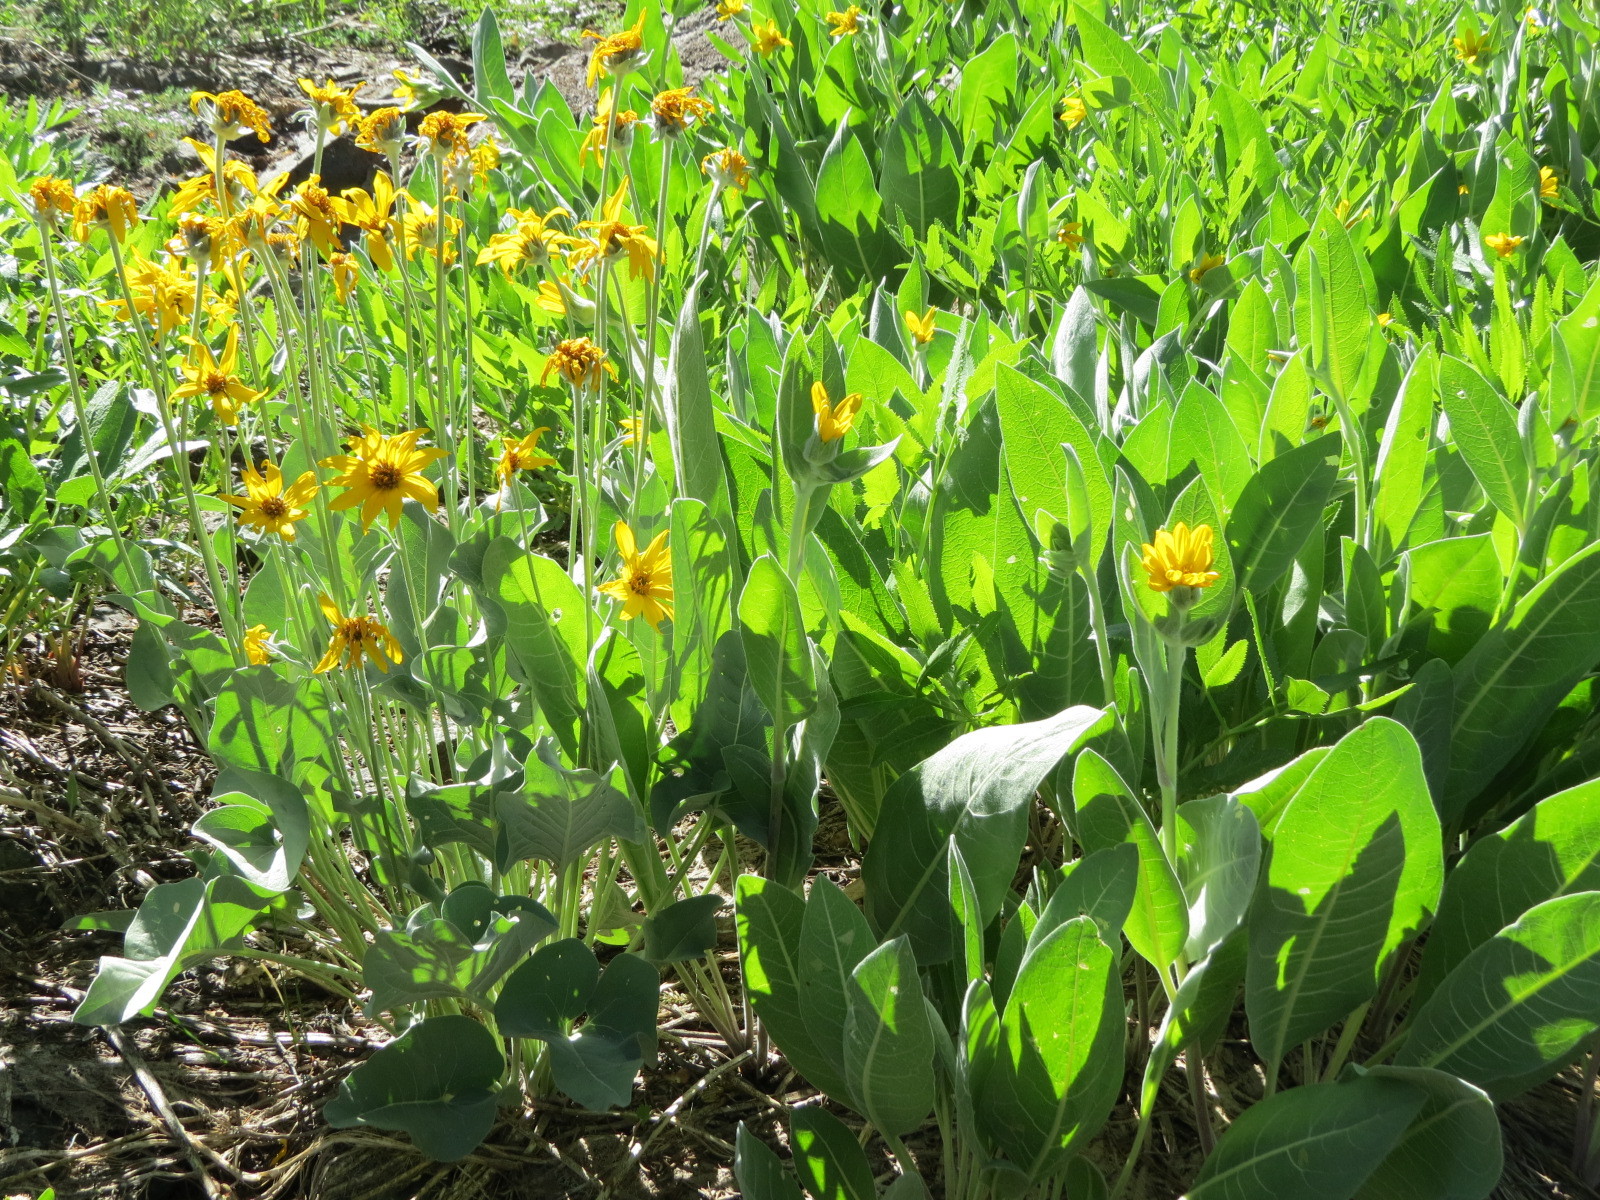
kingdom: Plantae
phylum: Tracheophyta
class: Magnoliopsida
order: Asterales
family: Asteraceae
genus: Wyethia
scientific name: Wyethia mollis
